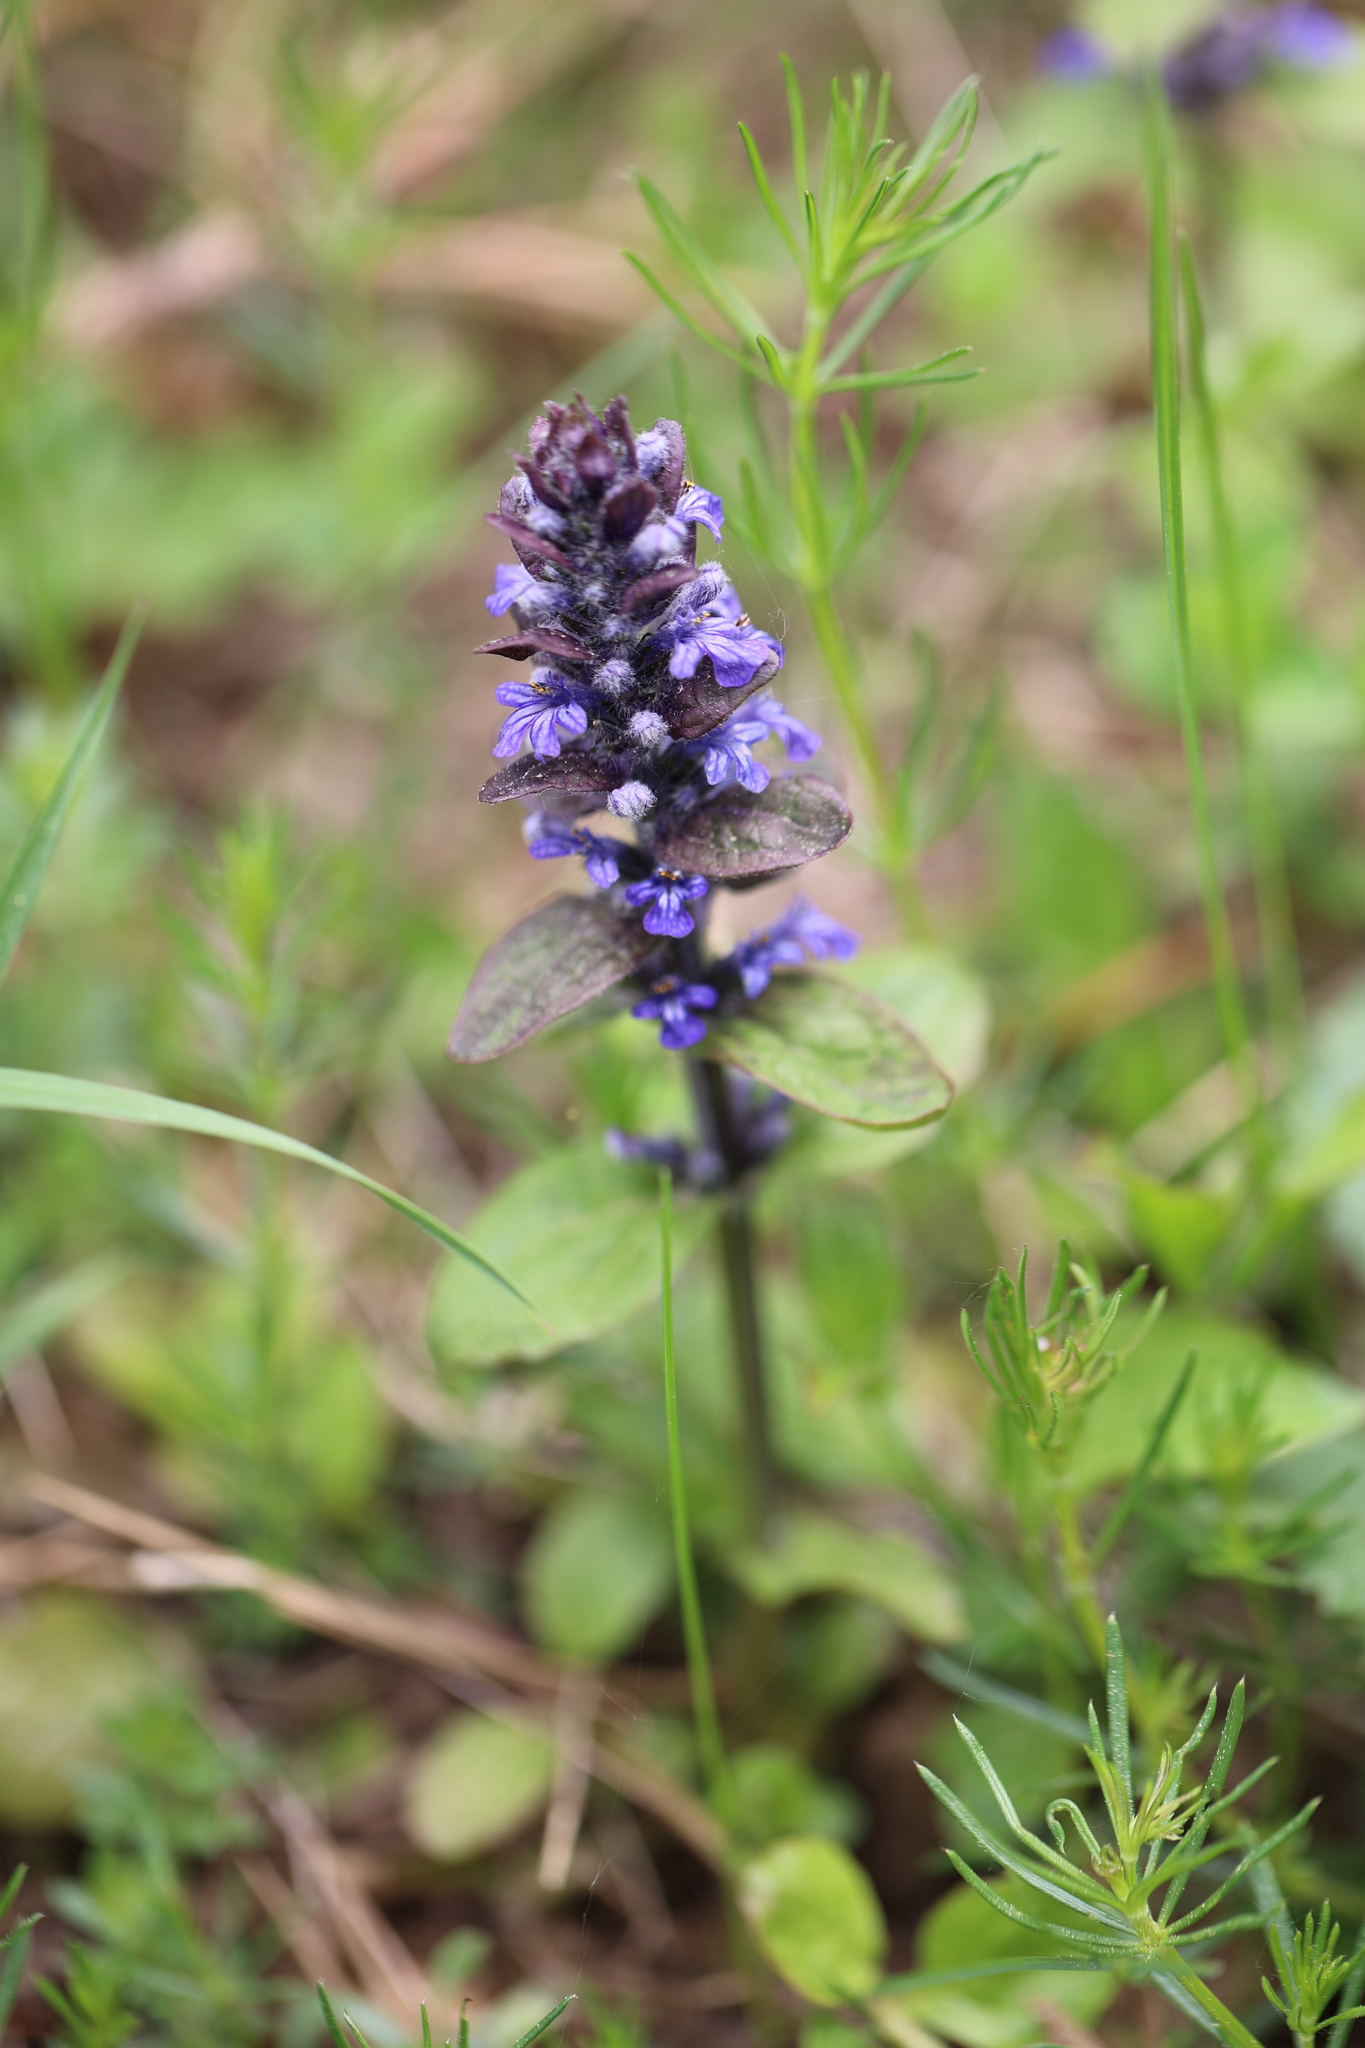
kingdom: Plantae
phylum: Tracheophyta
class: Magnoliopsida
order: Lamiales
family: Lamiaceae
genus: Ajuga
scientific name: Ajuga reptans
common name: Bugle
